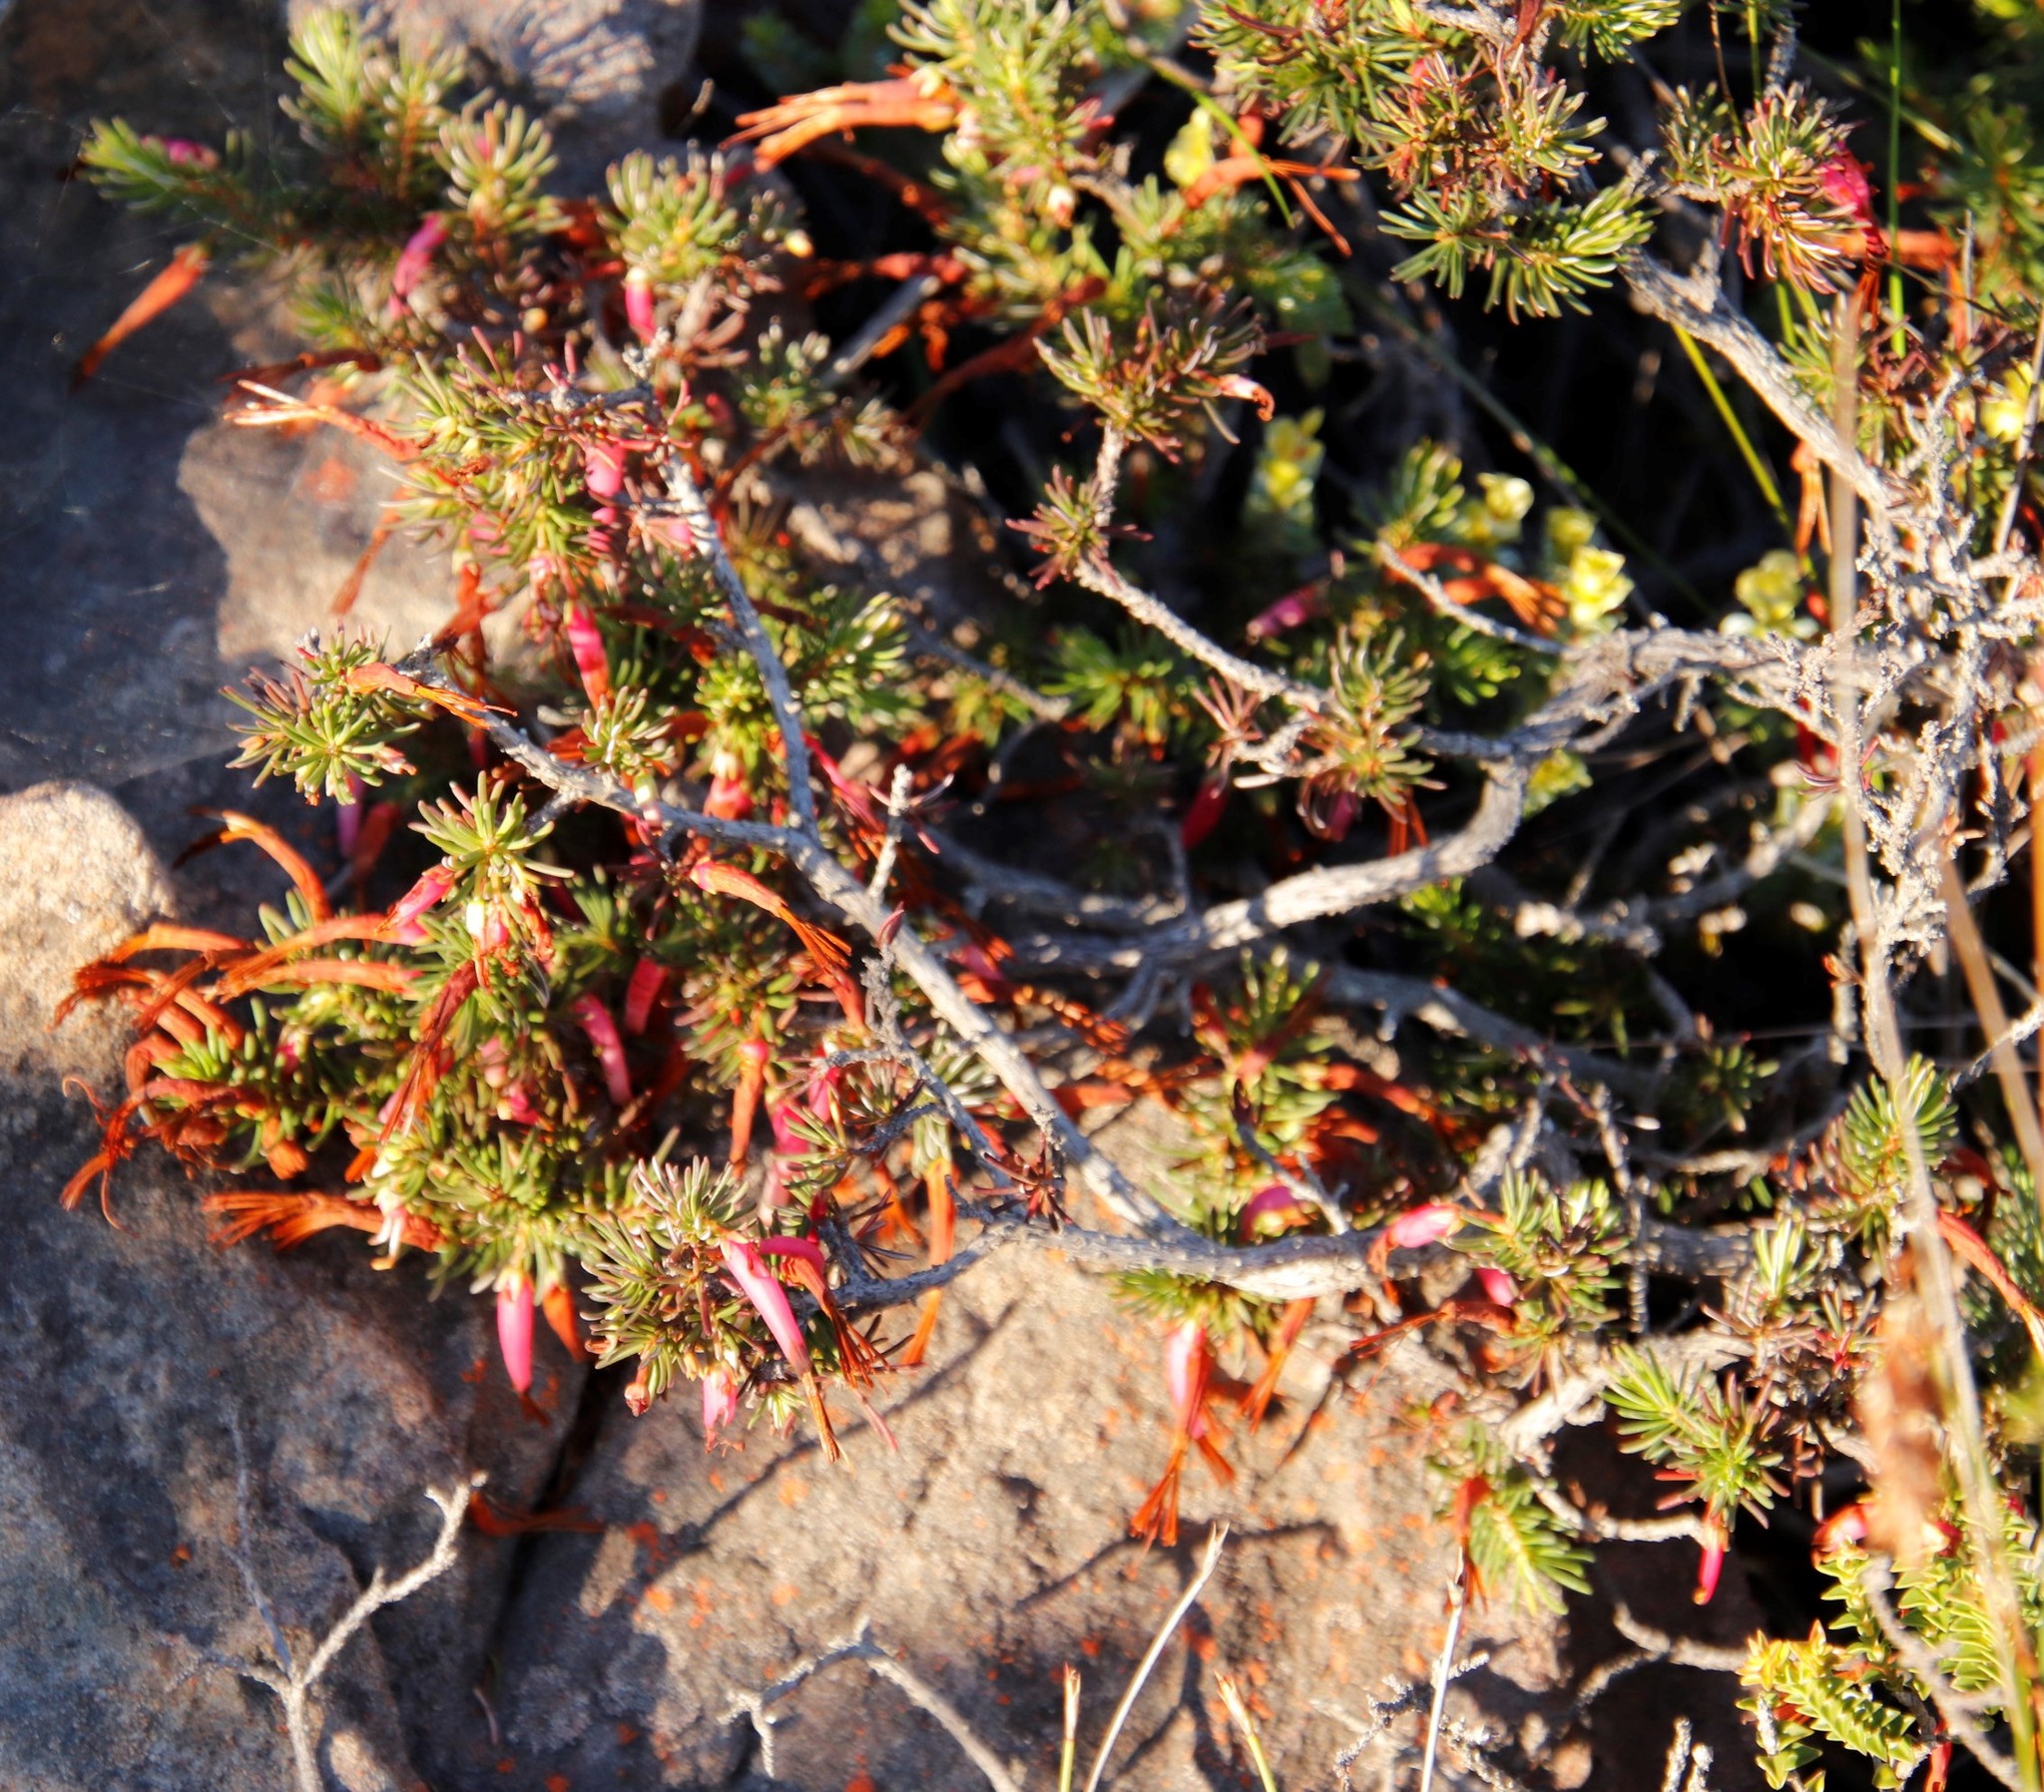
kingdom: Plantae
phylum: Tracheophyta
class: Magnoliopsida
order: Ericales
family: Ericaceae
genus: Erica
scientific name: Erica plukenetii
